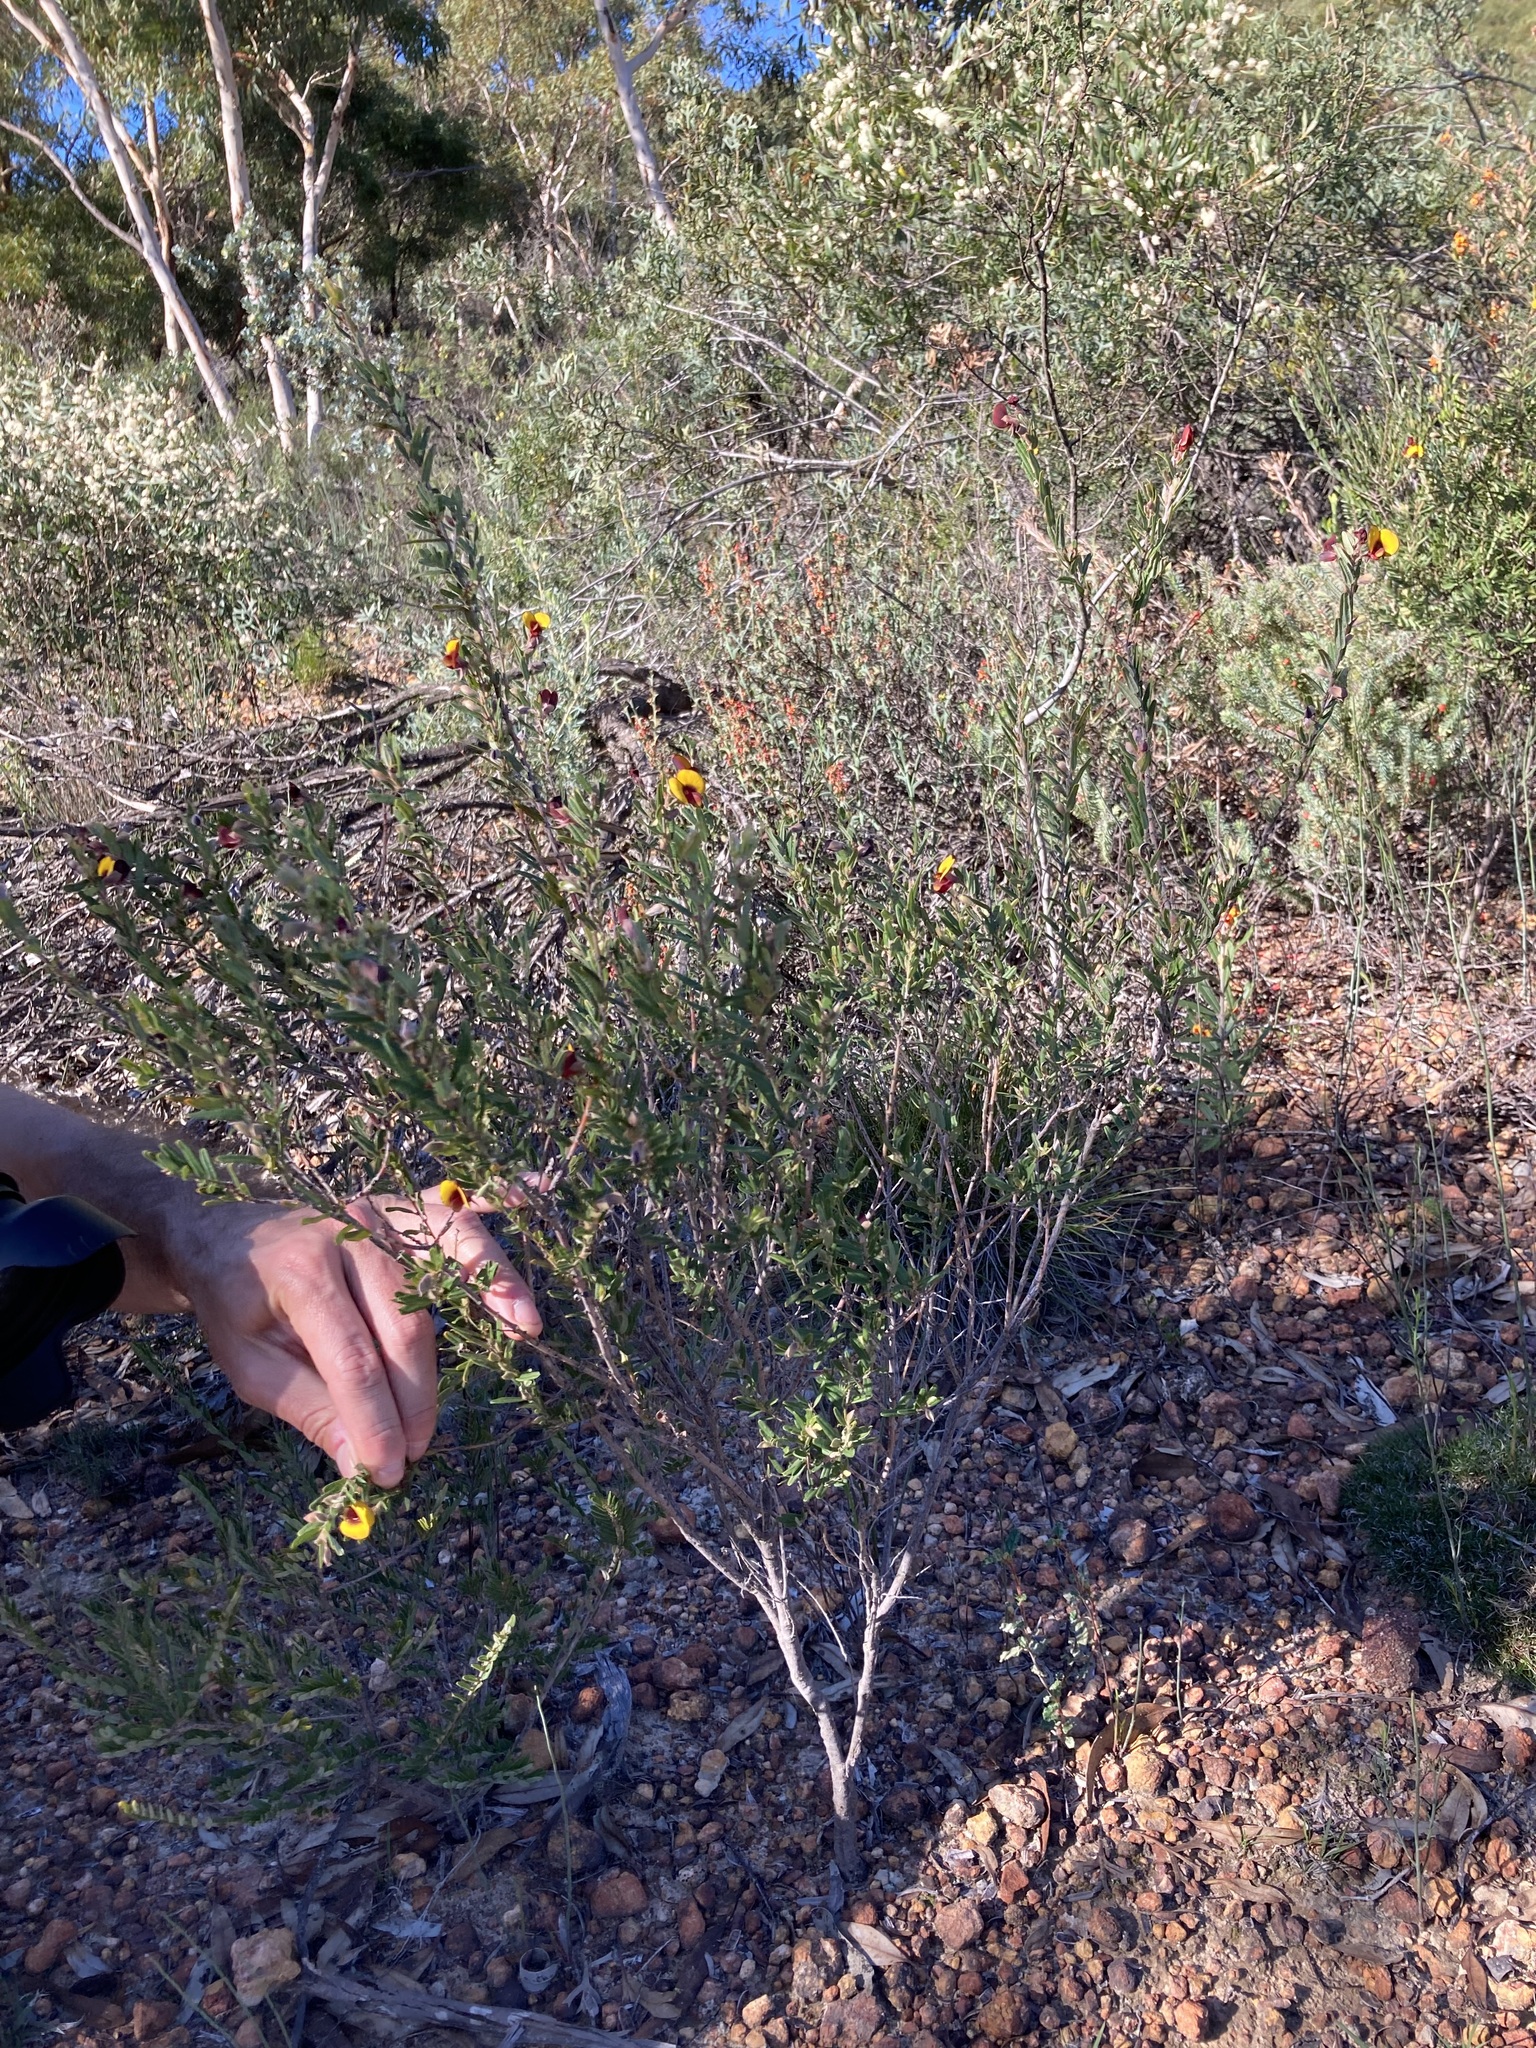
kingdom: Plantae
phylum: Tracheophyta
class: Magnoliopsida
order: Fabales
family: Fabaceae
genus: Bossiaea
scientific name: Bossiaea eriocarpa
